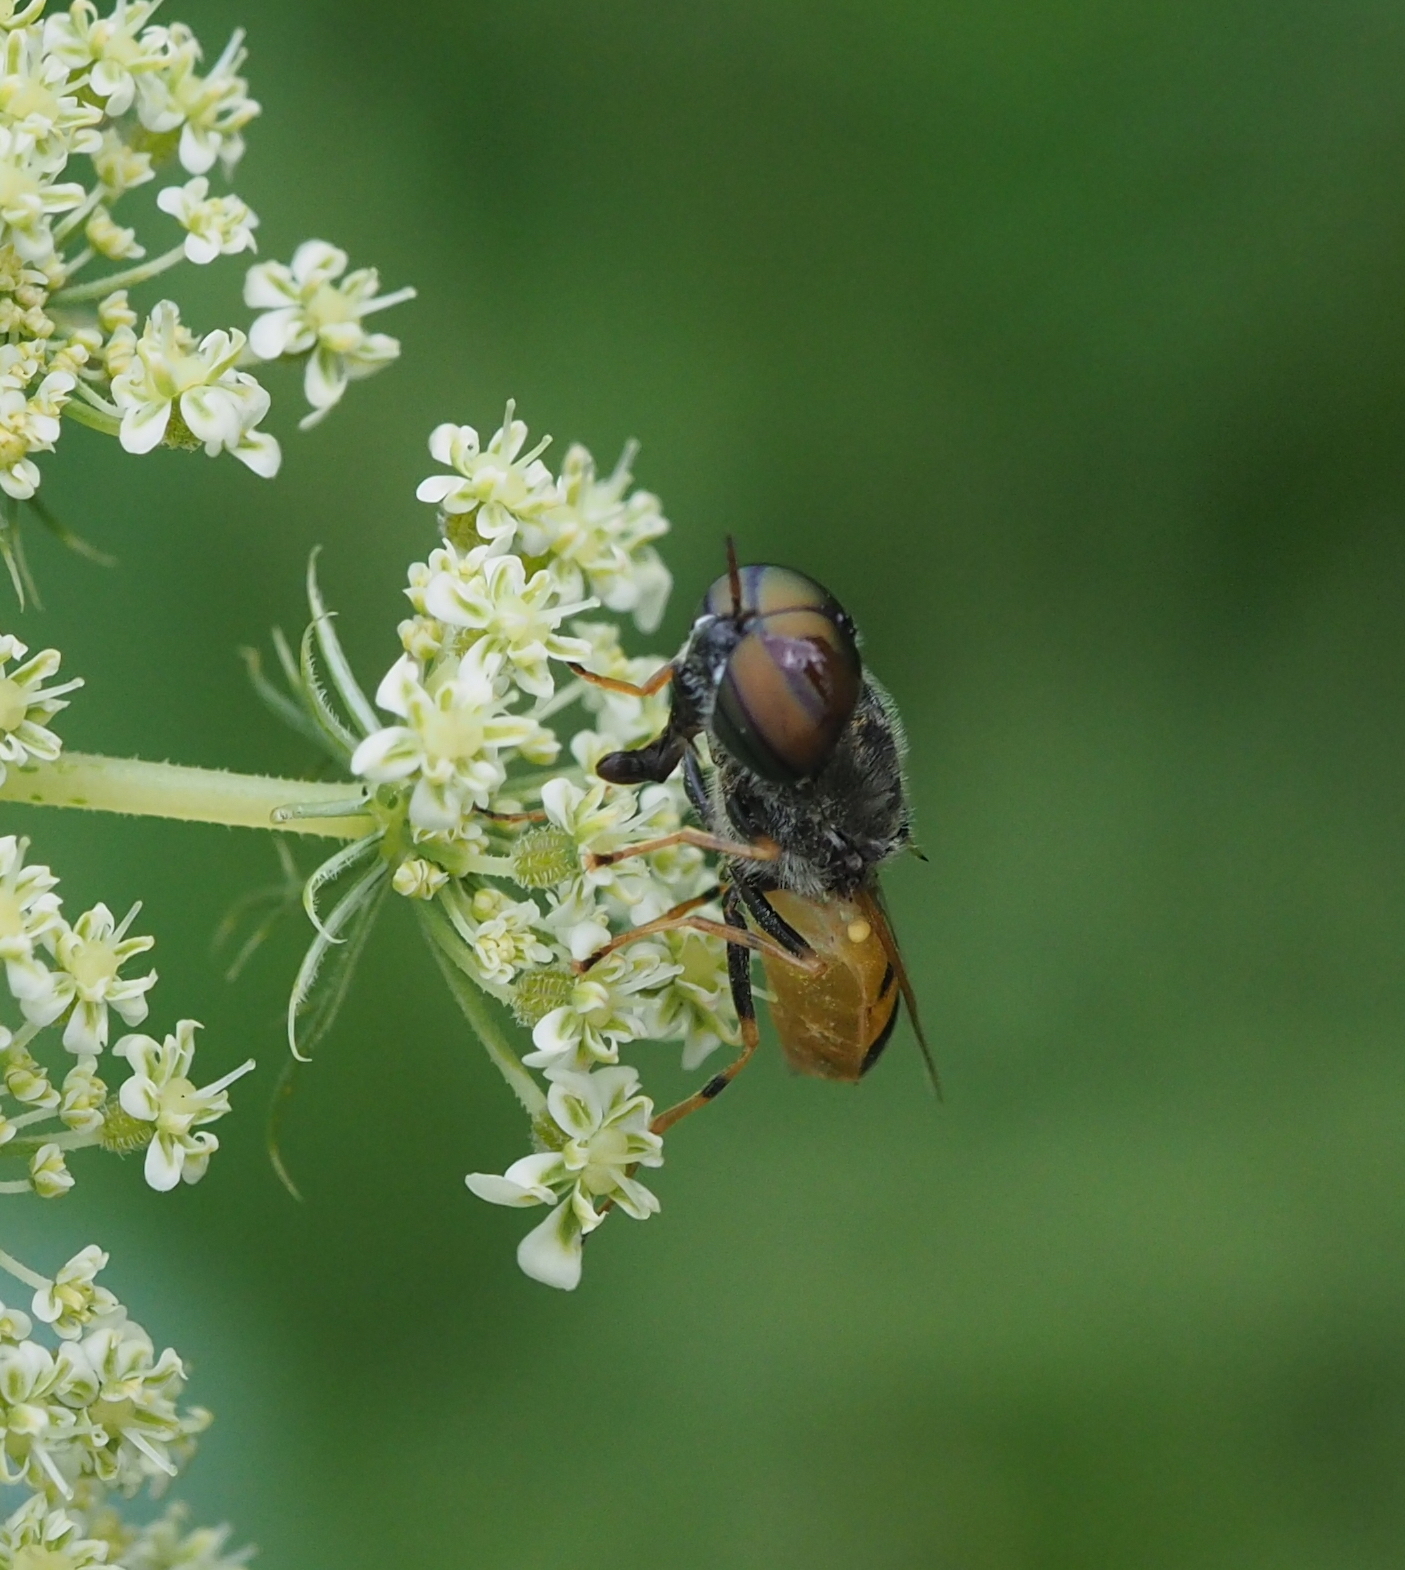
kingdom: Animalia
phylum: Arthropoda
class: Insecta
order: Diptera
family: Stratiomyidae
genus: Odontomyia
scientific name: Odontomyia annulata
